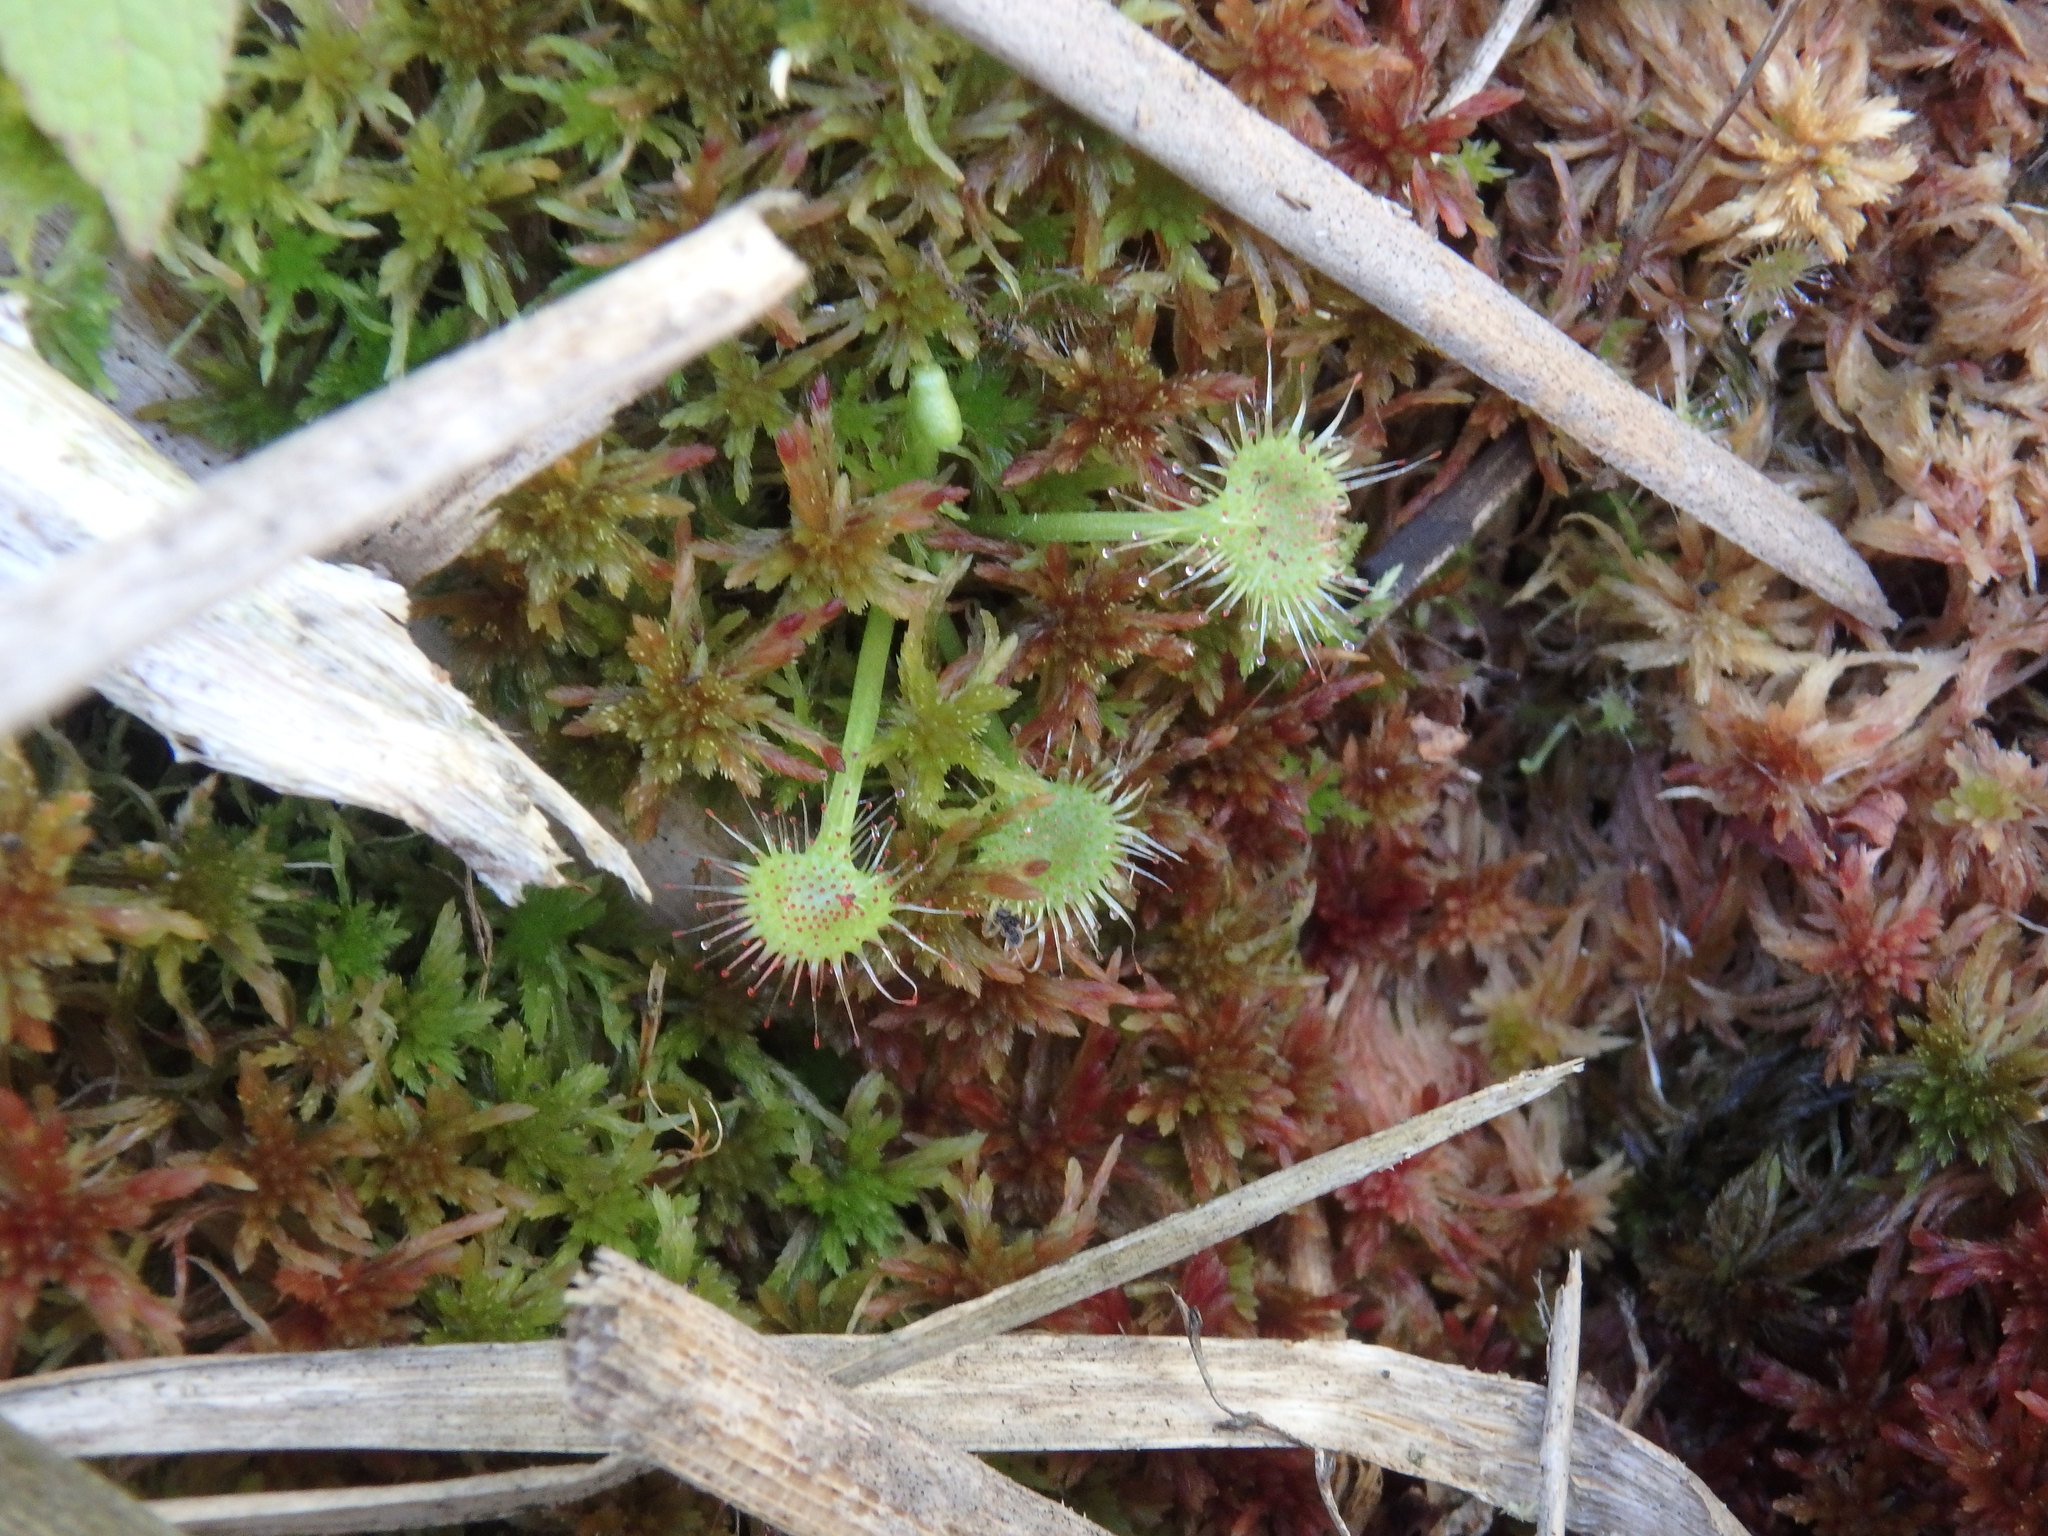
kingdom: Plantae
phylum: Tracheophyta
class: Magnoliopsida
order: Caryophyllales
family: Droseraceae
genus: Drosera
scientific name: Drosera rotundifolia
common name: Round-leaved sundew
